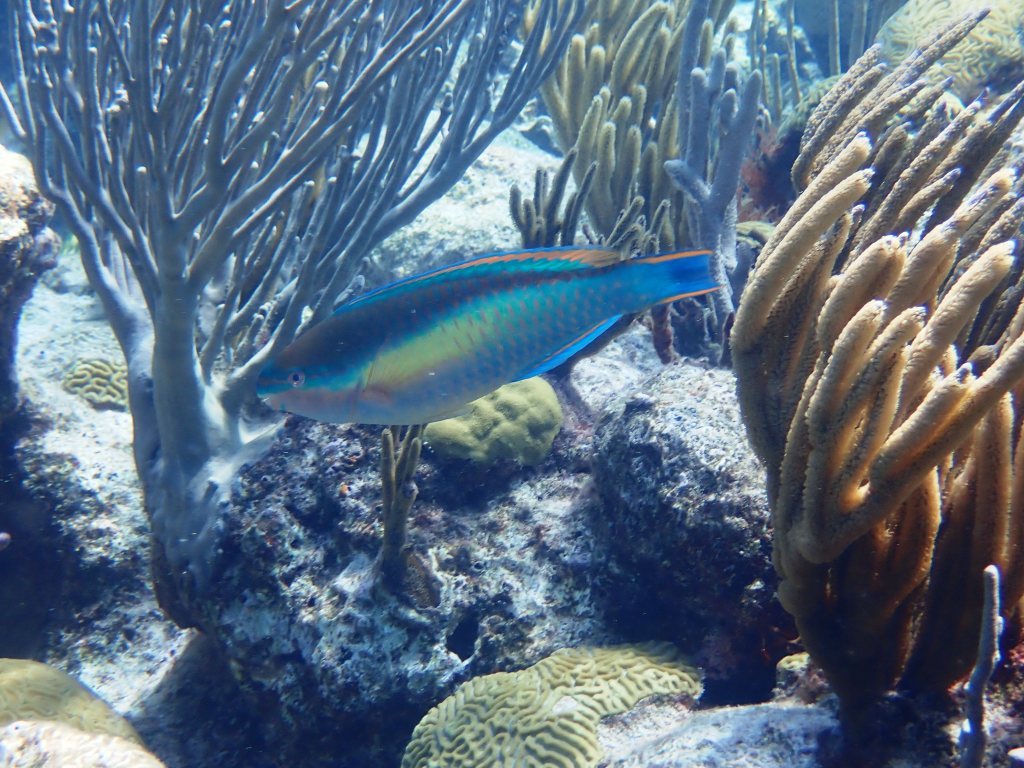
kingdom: Animalia
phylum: Chordata
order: Perciformes
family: Scaridae
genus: Scarus
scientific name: Scarus taeniopterus
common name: Princess parrotfish
